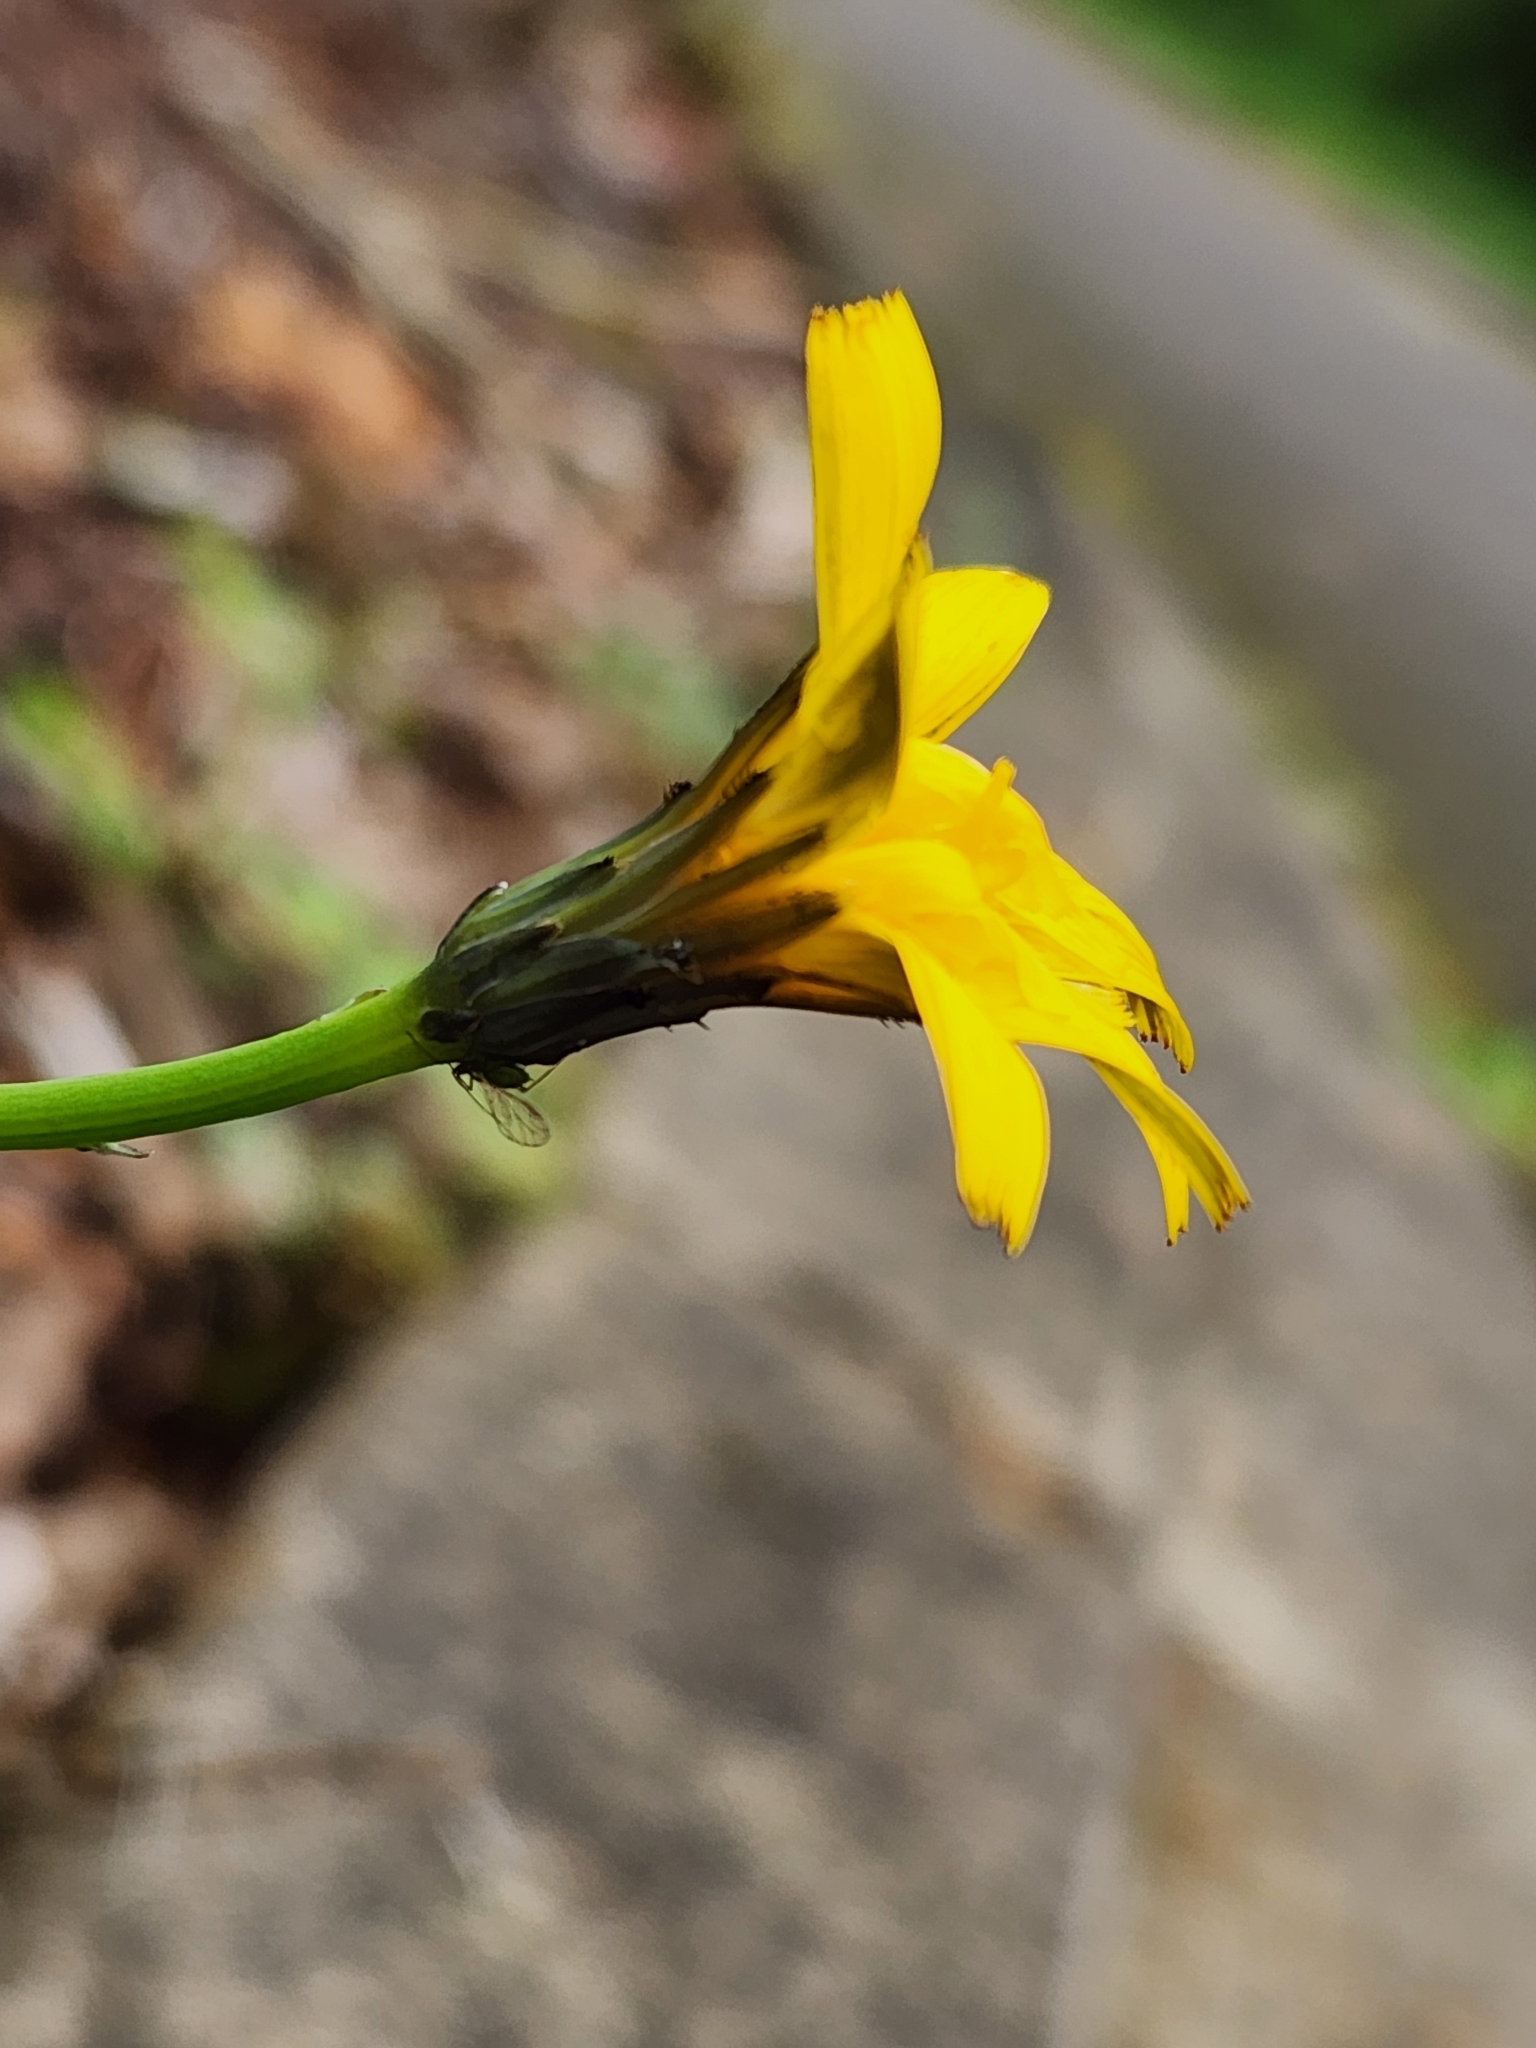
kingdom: Plantae
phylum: Tracheophyta
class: Magnoliopsida
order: Asterales
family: Asteraceae
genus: Hypochaeris
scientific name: Hypochaeris radicata
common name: Flatweed
